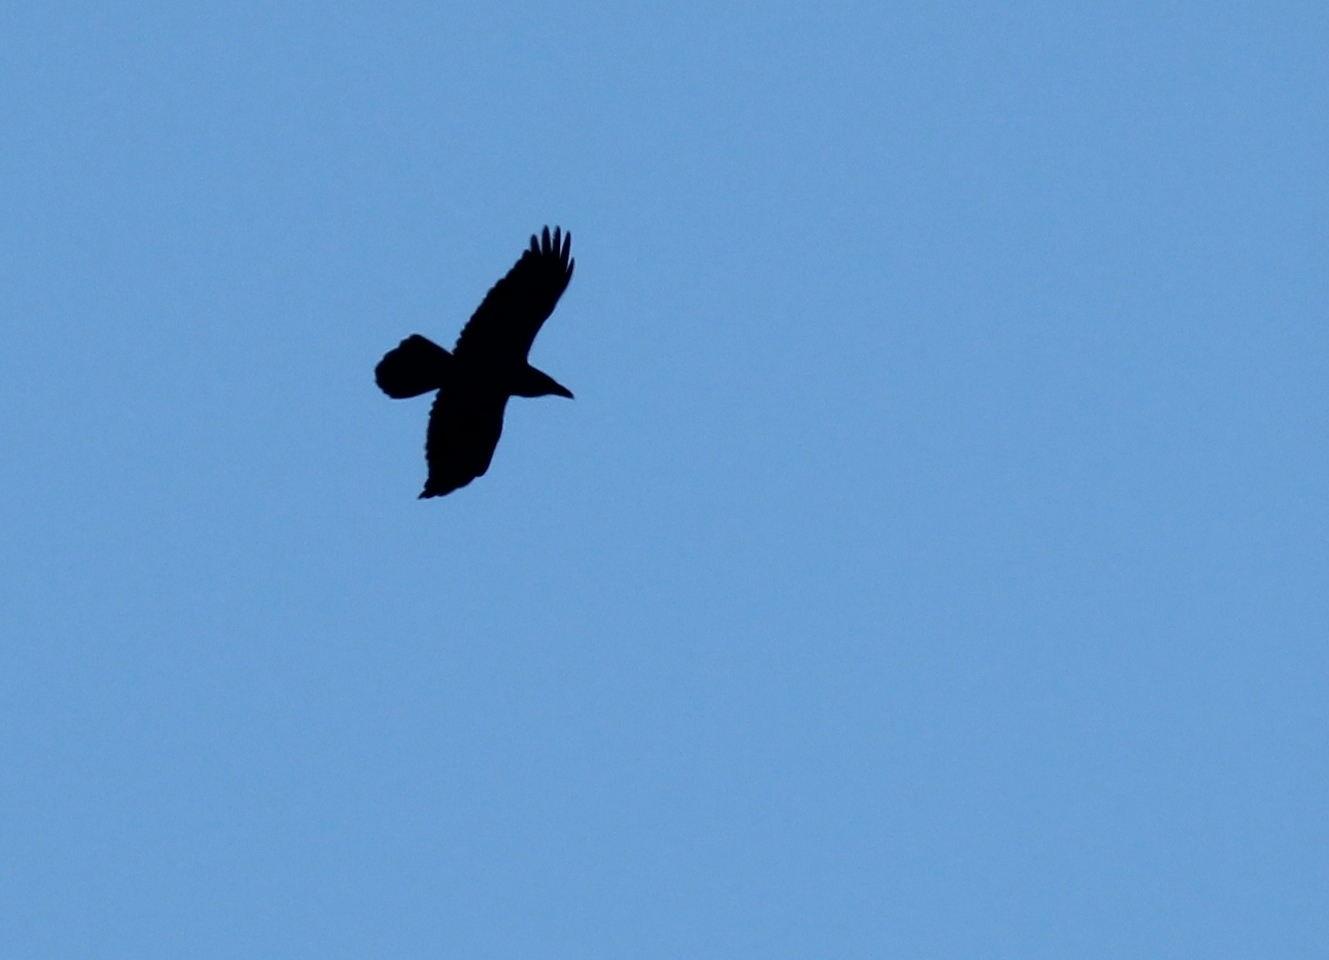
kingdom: Animalia
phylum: Chordata
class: Aves
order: Passeriformes
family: Corvidae
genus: Corvus
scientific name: Corvus corax
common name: Common raven
